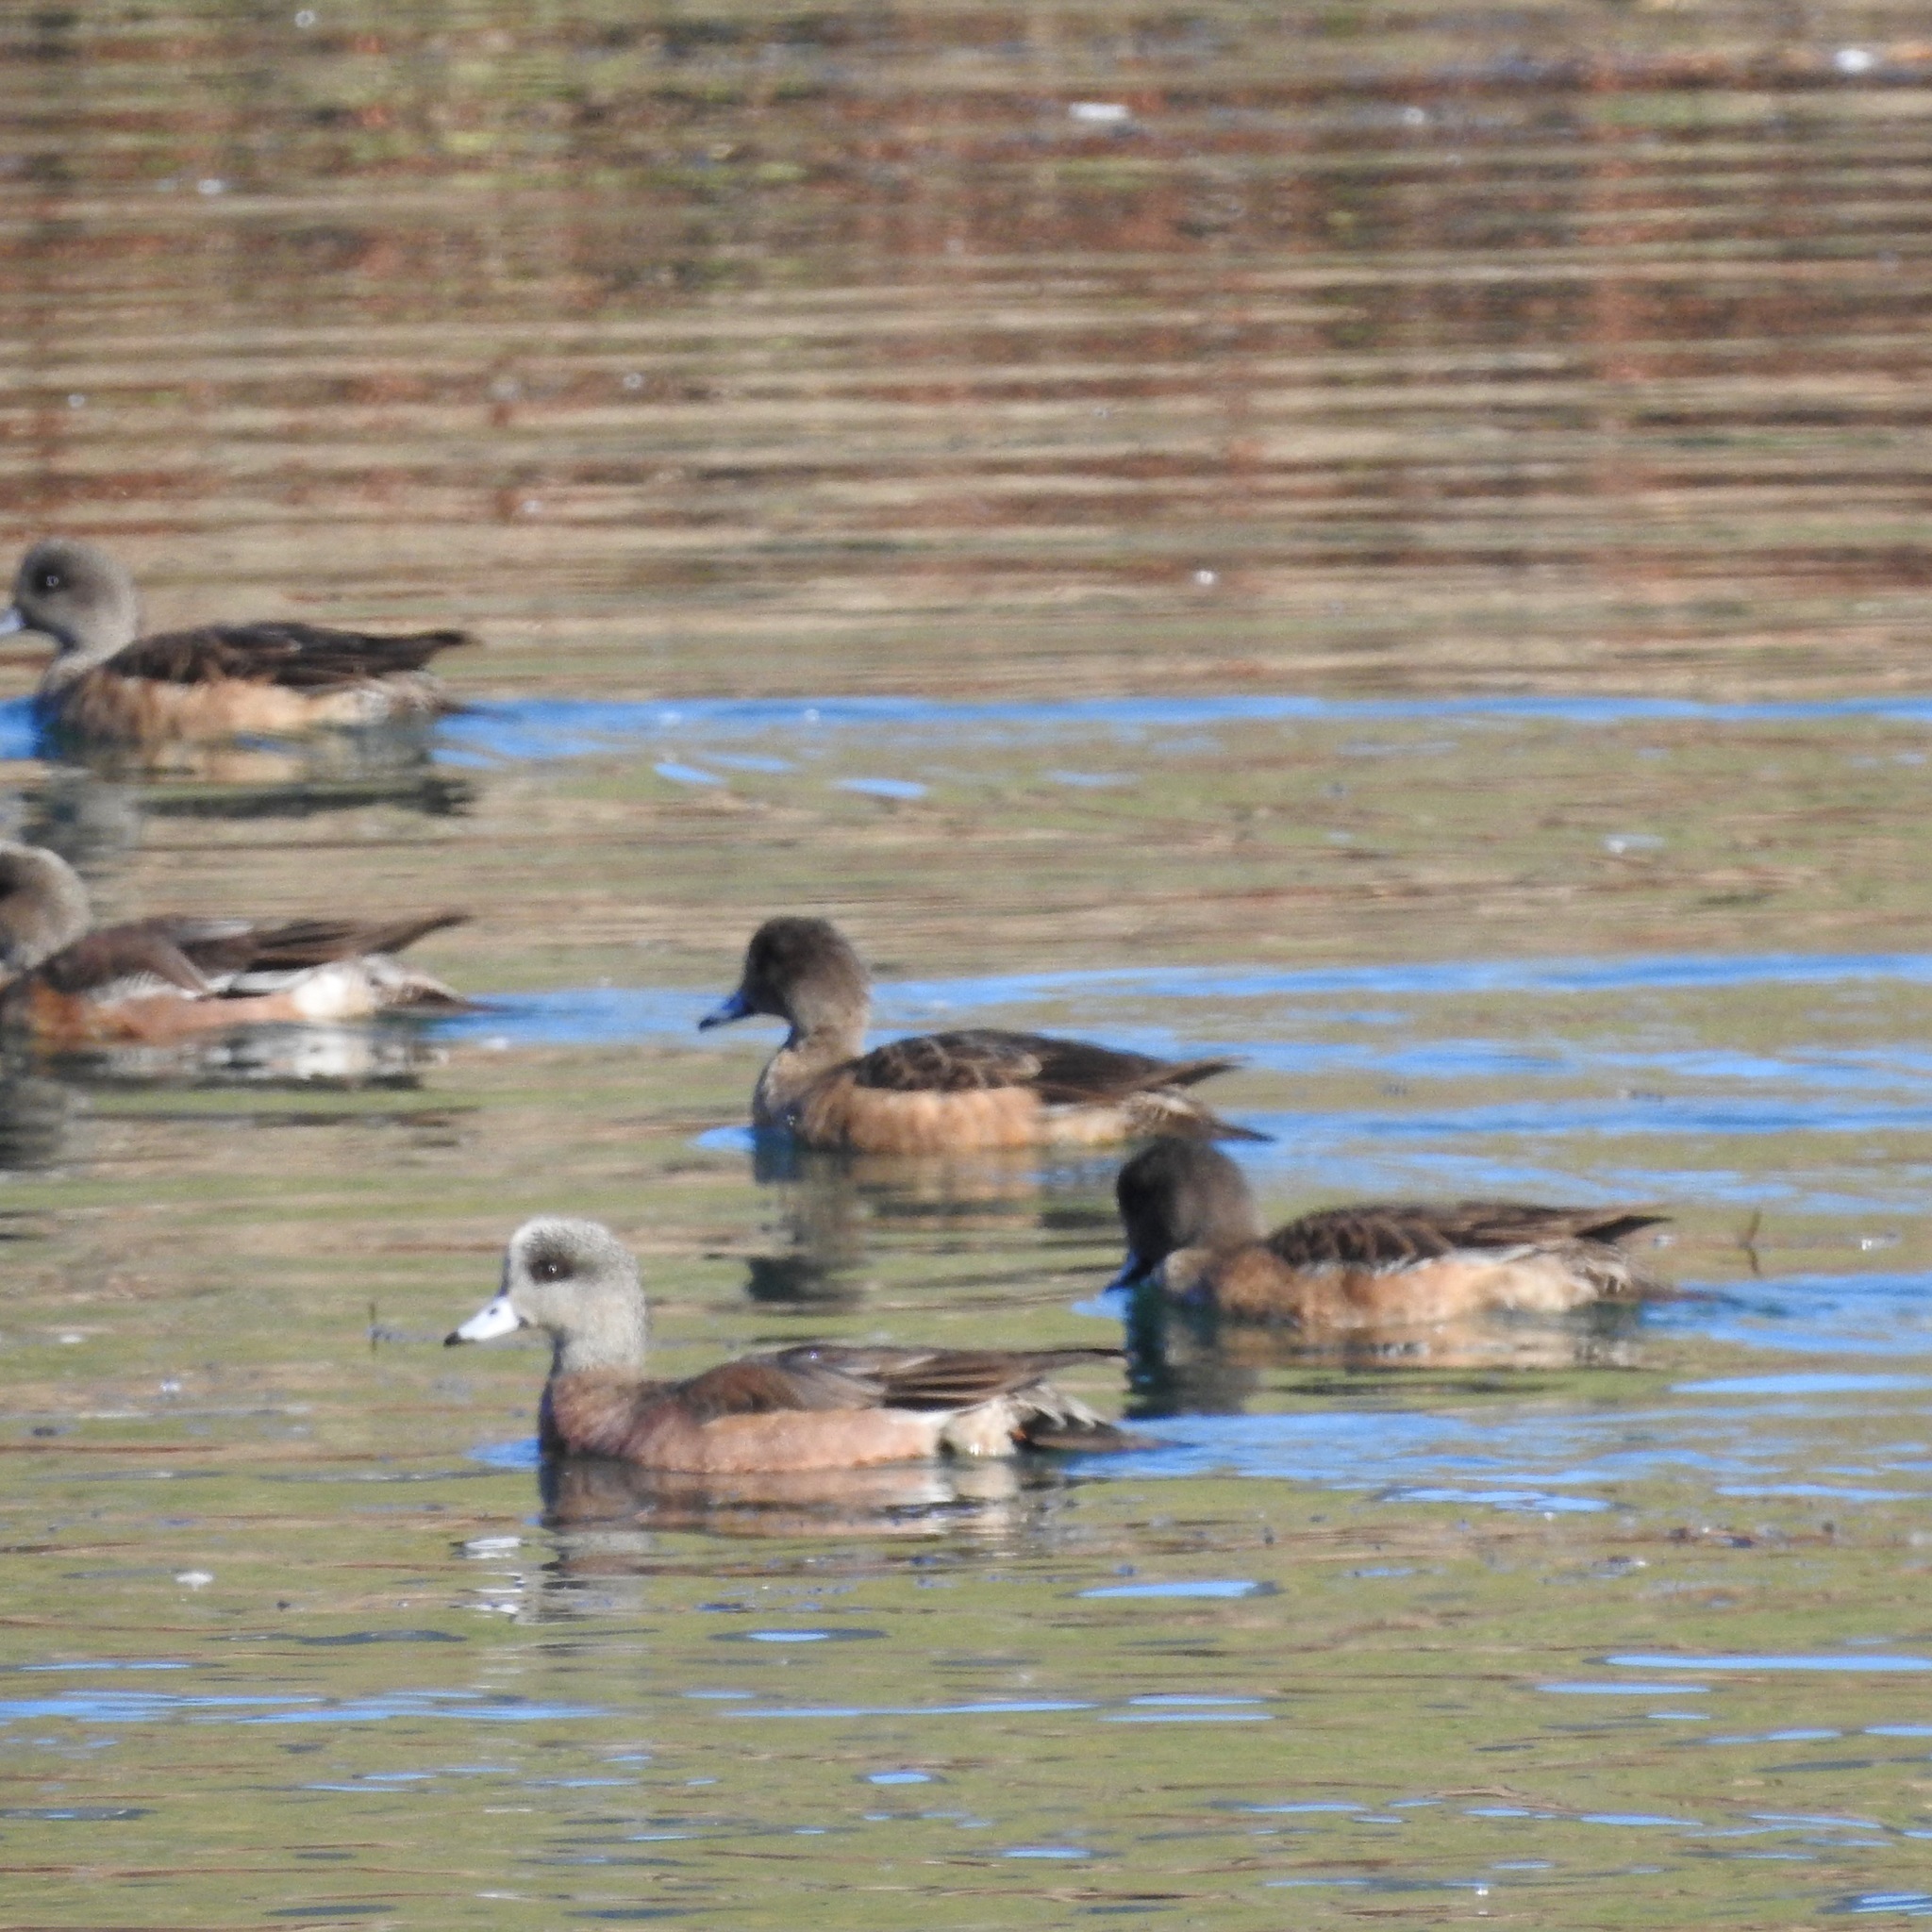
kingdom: Animalia
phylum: Chordata
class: Aves
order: Anseriformes
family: Anatidae
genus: Mareca
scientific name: Mareca americana
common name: American wigeon
